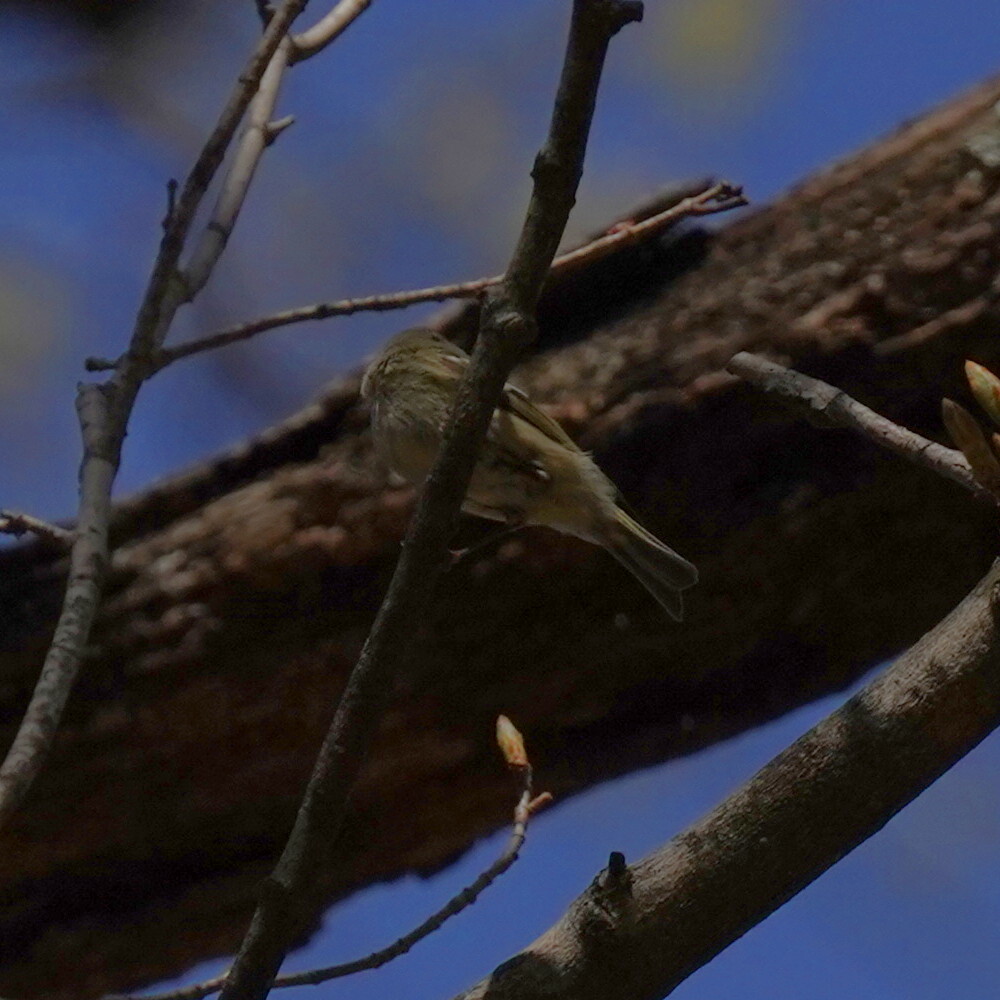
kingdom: Animalia
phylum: Chordata
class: Aves
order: Passeriformes
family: Regulidae
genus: Regulus
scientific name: Regulus calendula
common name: Ruby-crowned kinglet
